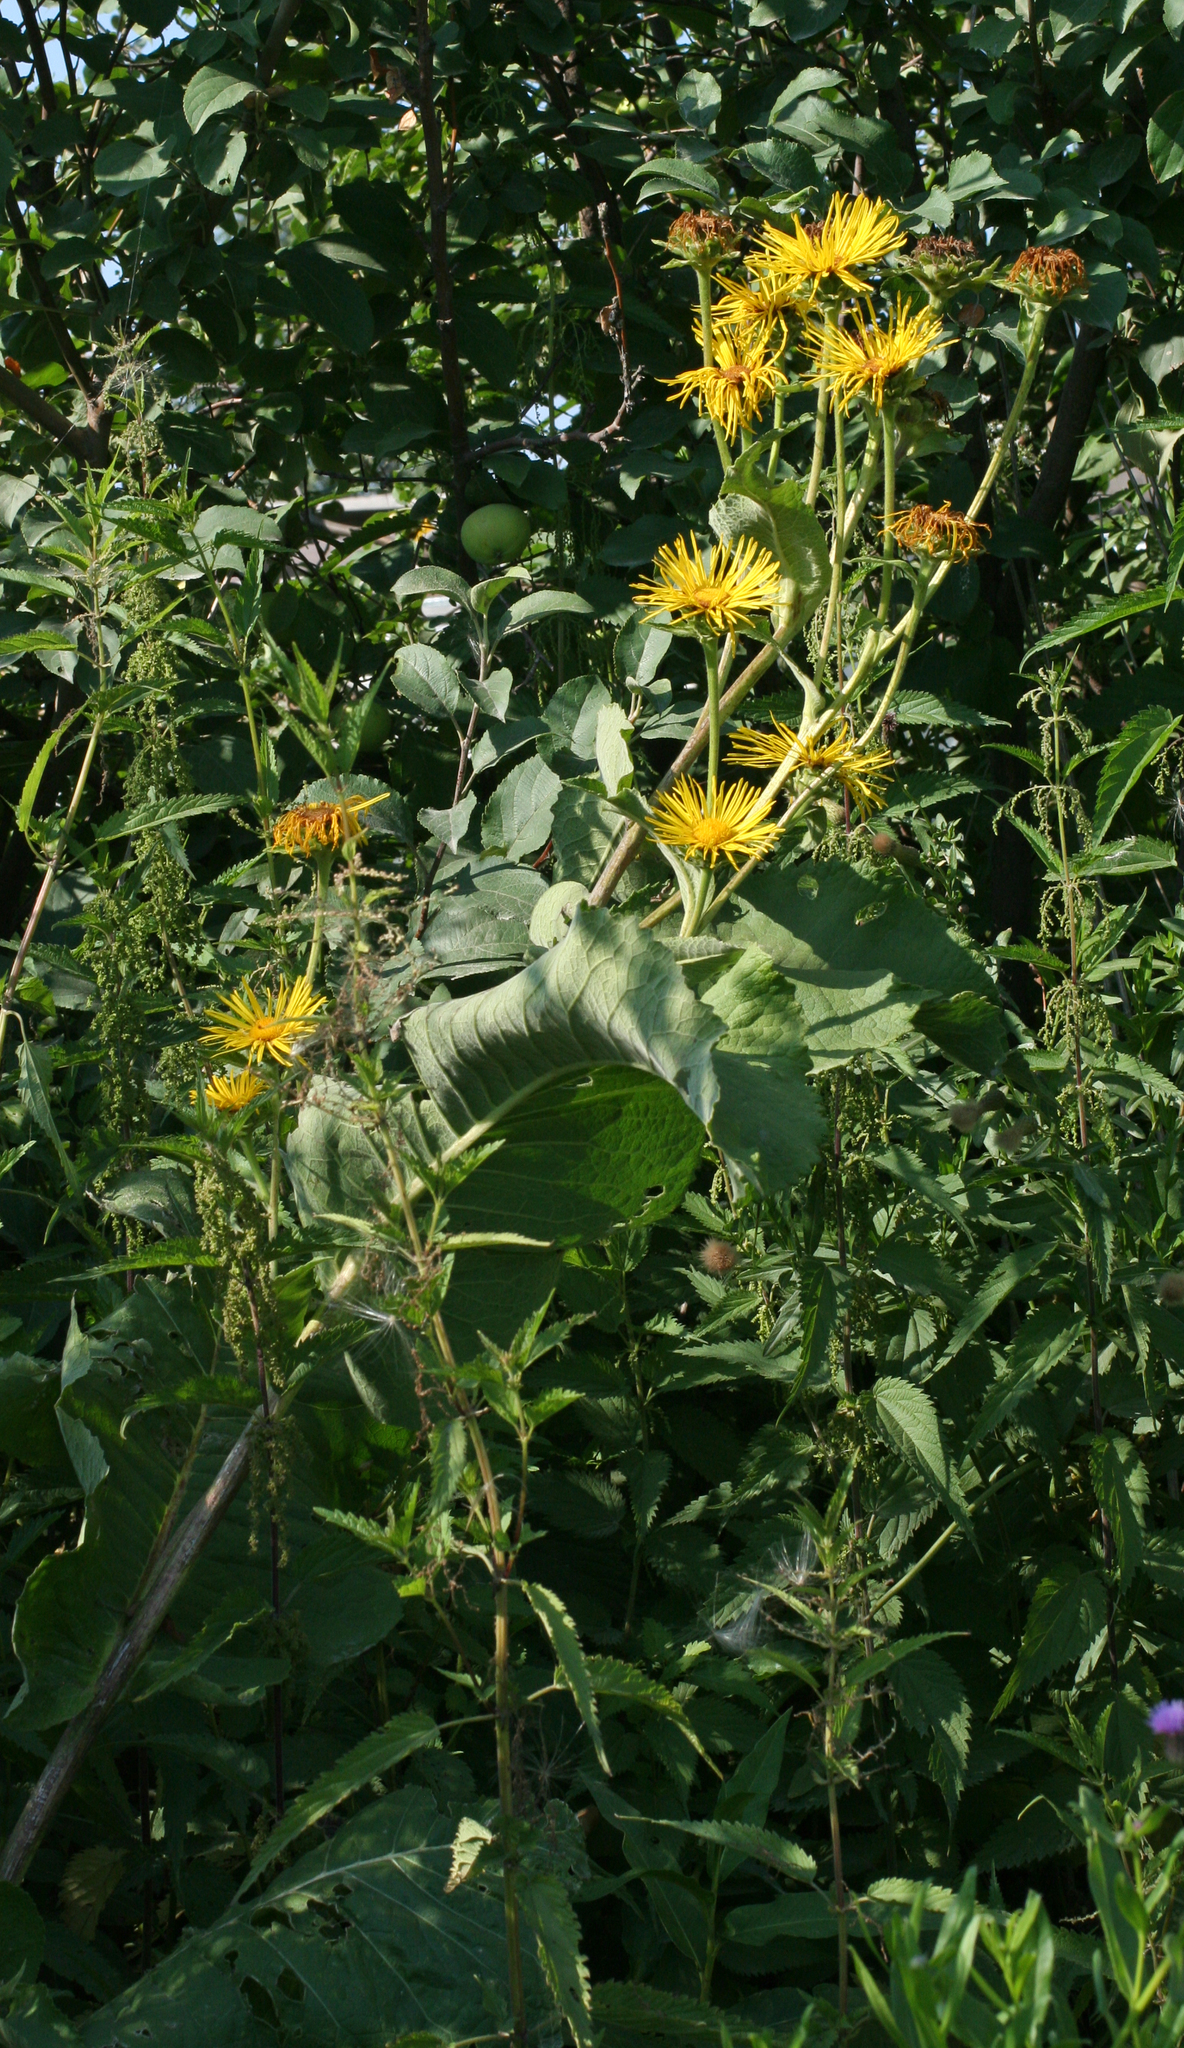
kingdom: Plantae
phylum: Tracheophyta
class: Magnoliopsida
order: Asterales
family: Asteraceae
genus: Inula
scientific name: Inula helenium
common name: Elecampane
